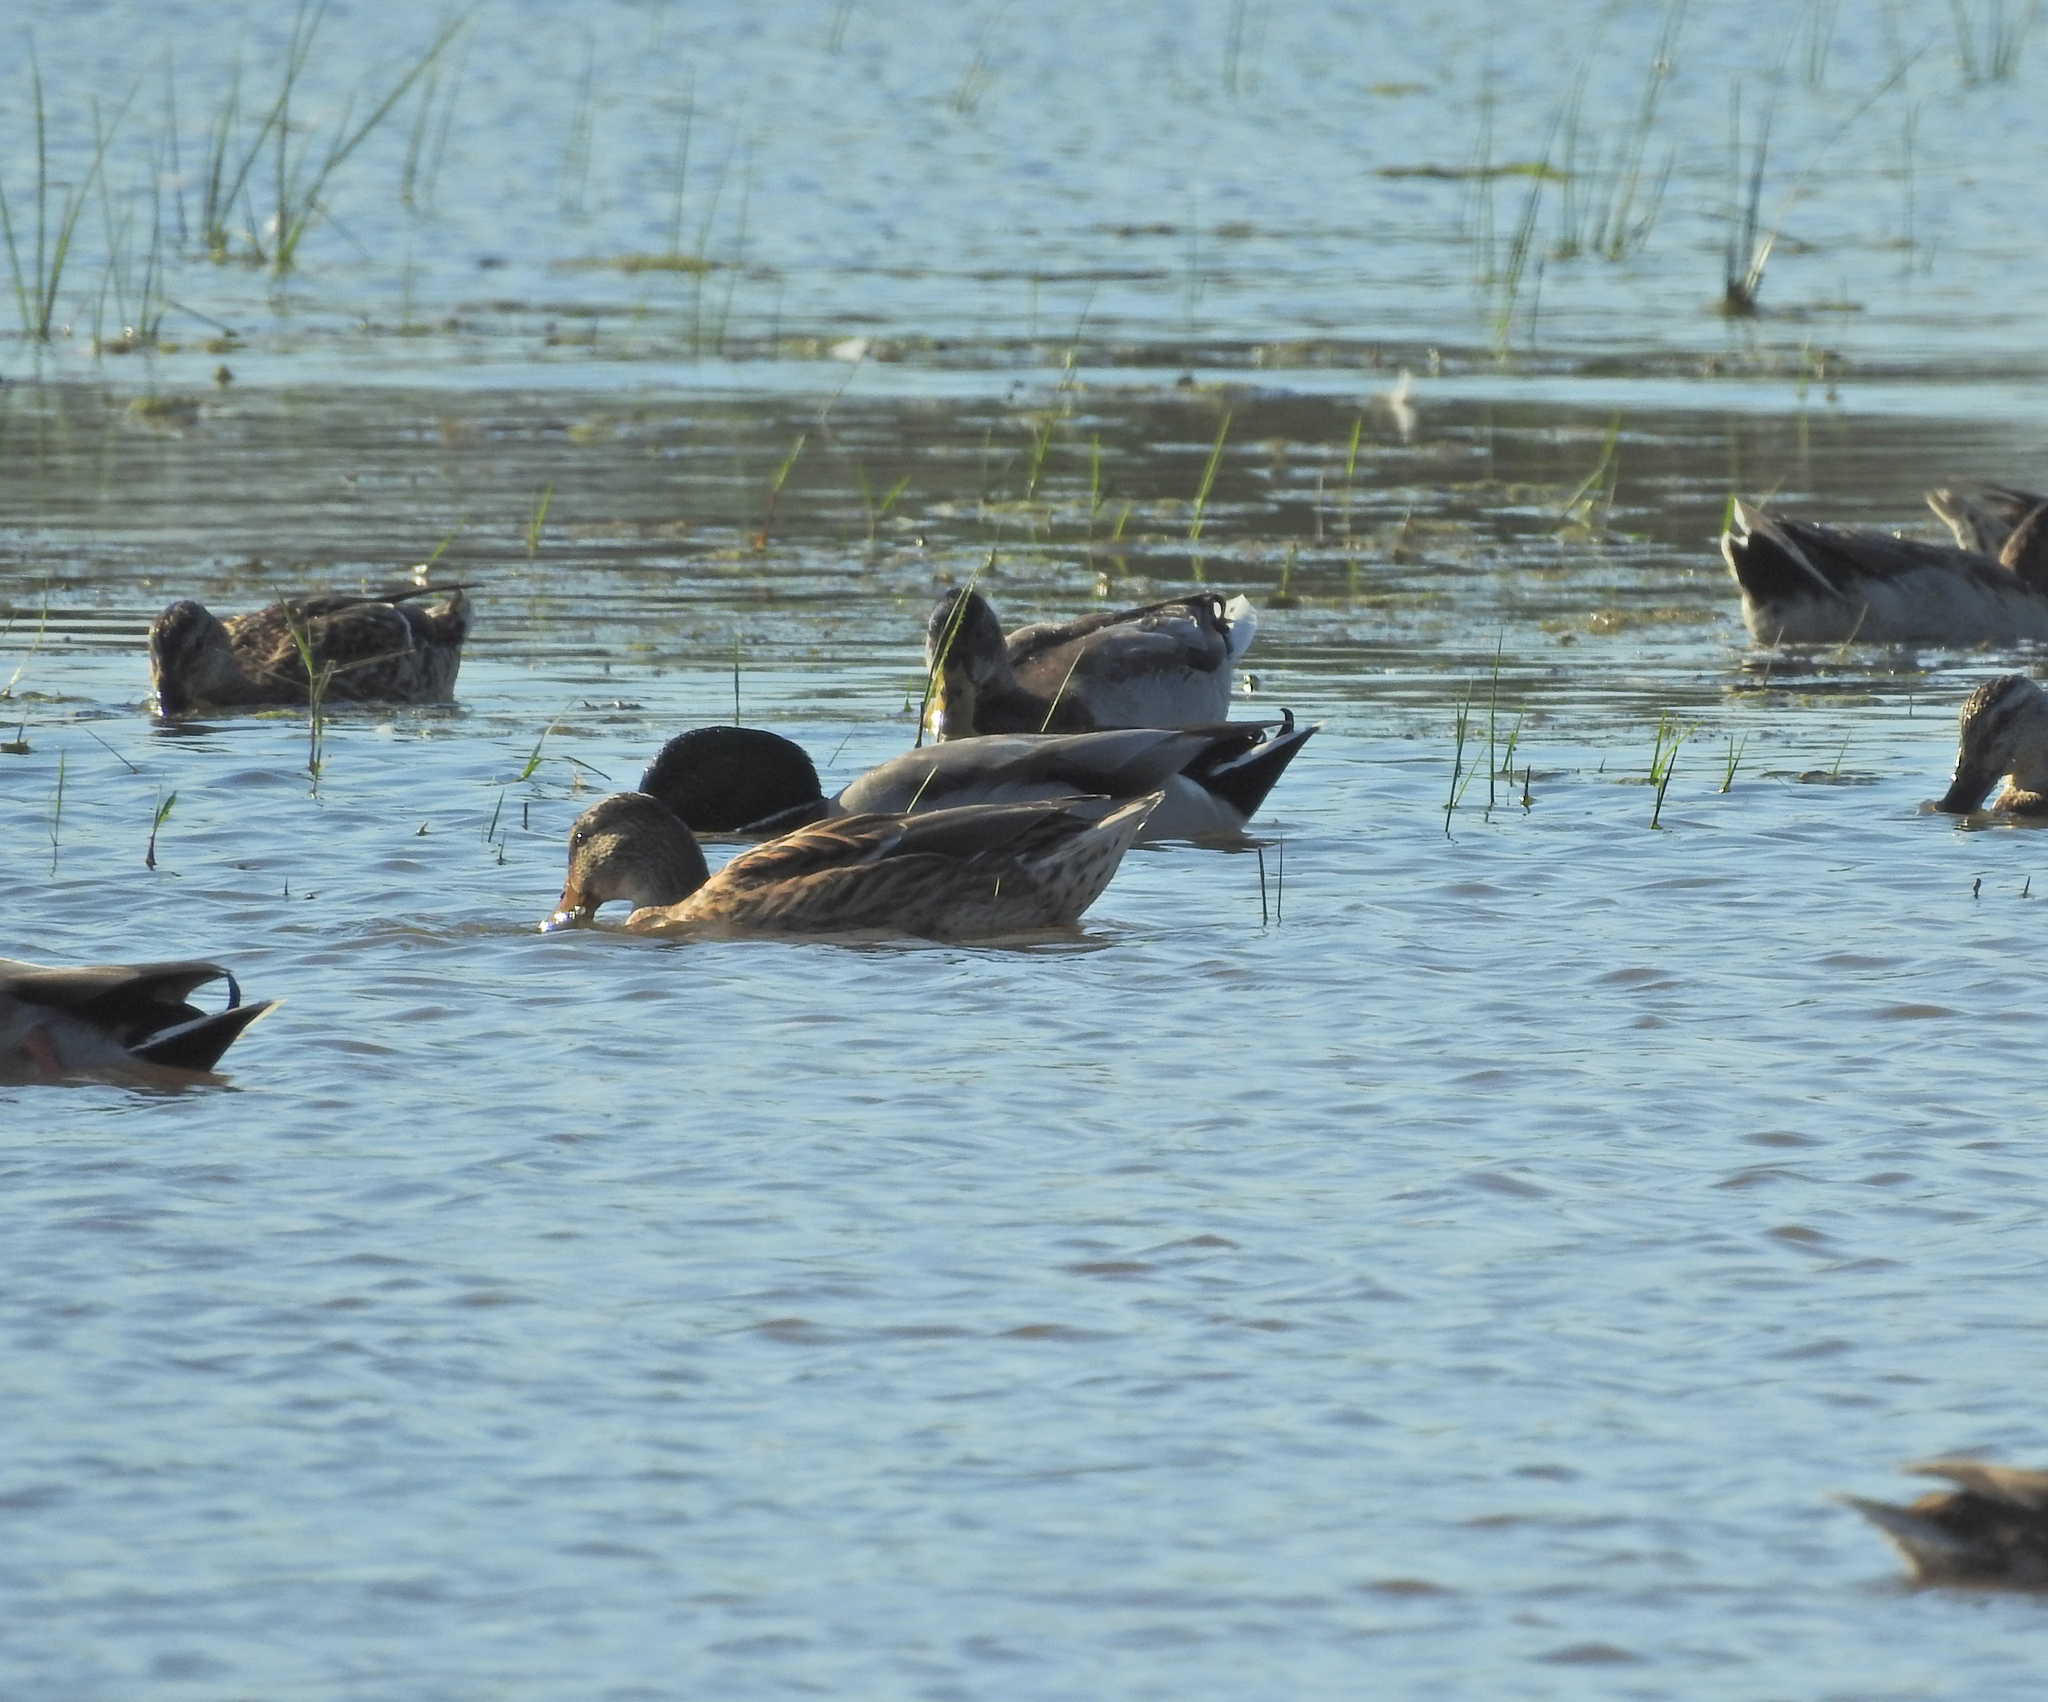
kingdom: Animalia
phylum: Chordata
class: Aves
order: Anseriformes
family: Anatidae
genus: Anas
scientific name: Anas platyrhynchos
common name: Mallard
